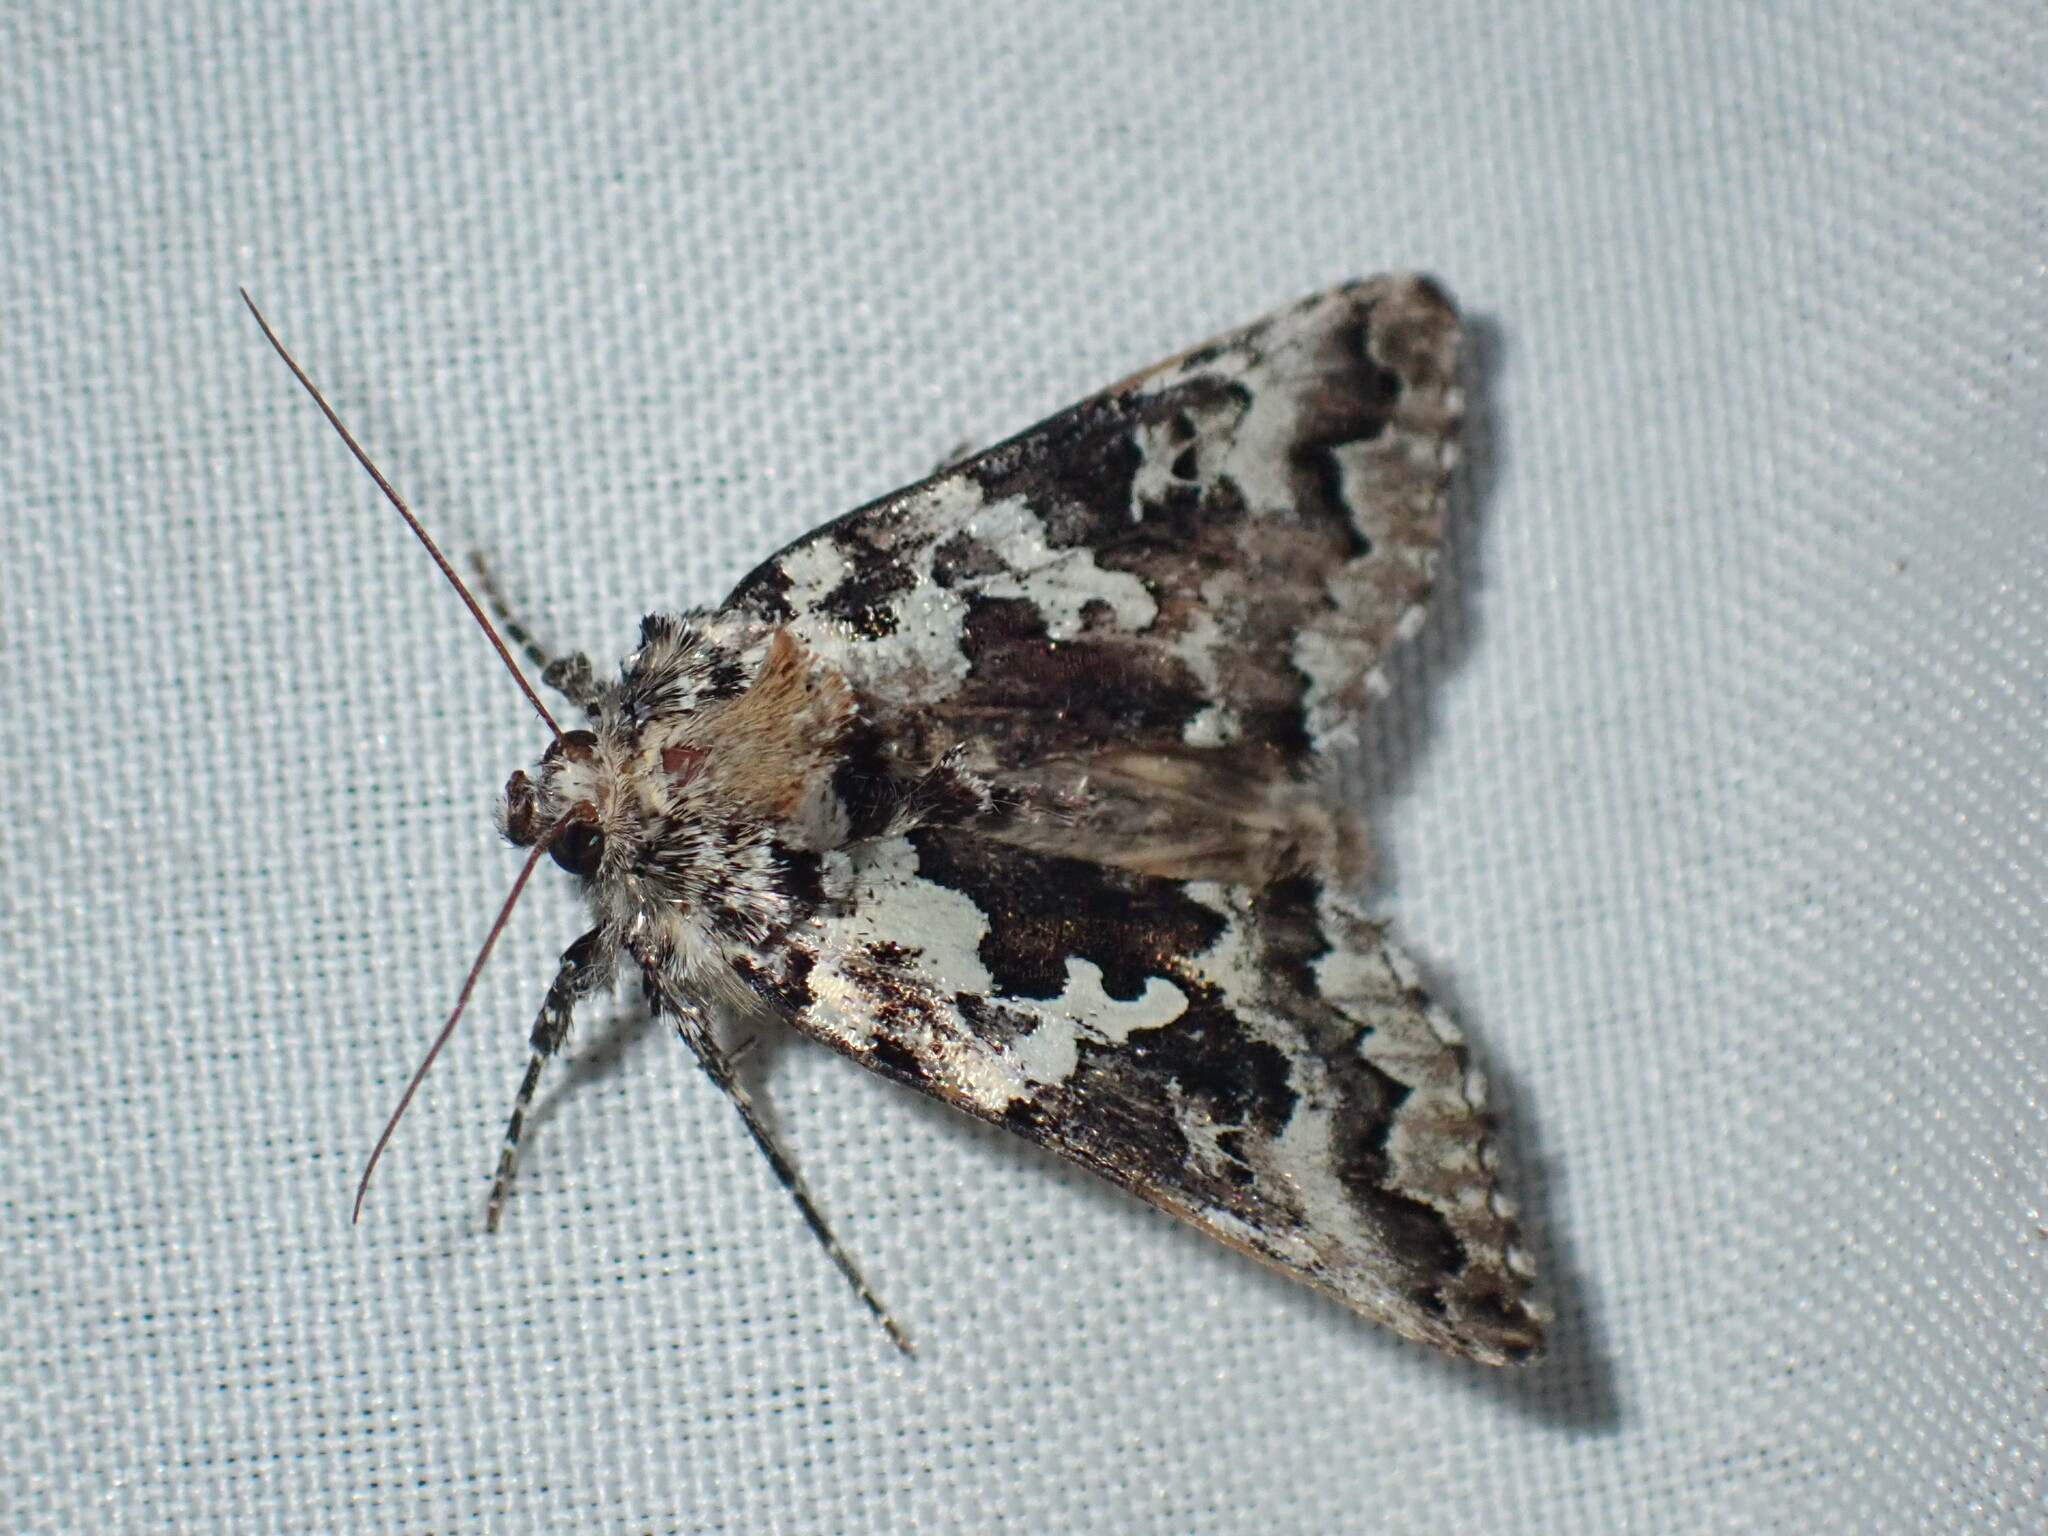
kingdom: Animalia
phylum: Arthropoda
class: Insecta
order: Lepidoptera
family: Noctuidae
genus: Syngrapha
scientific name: Syngrapha rectangula
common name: Angulated cutworm
